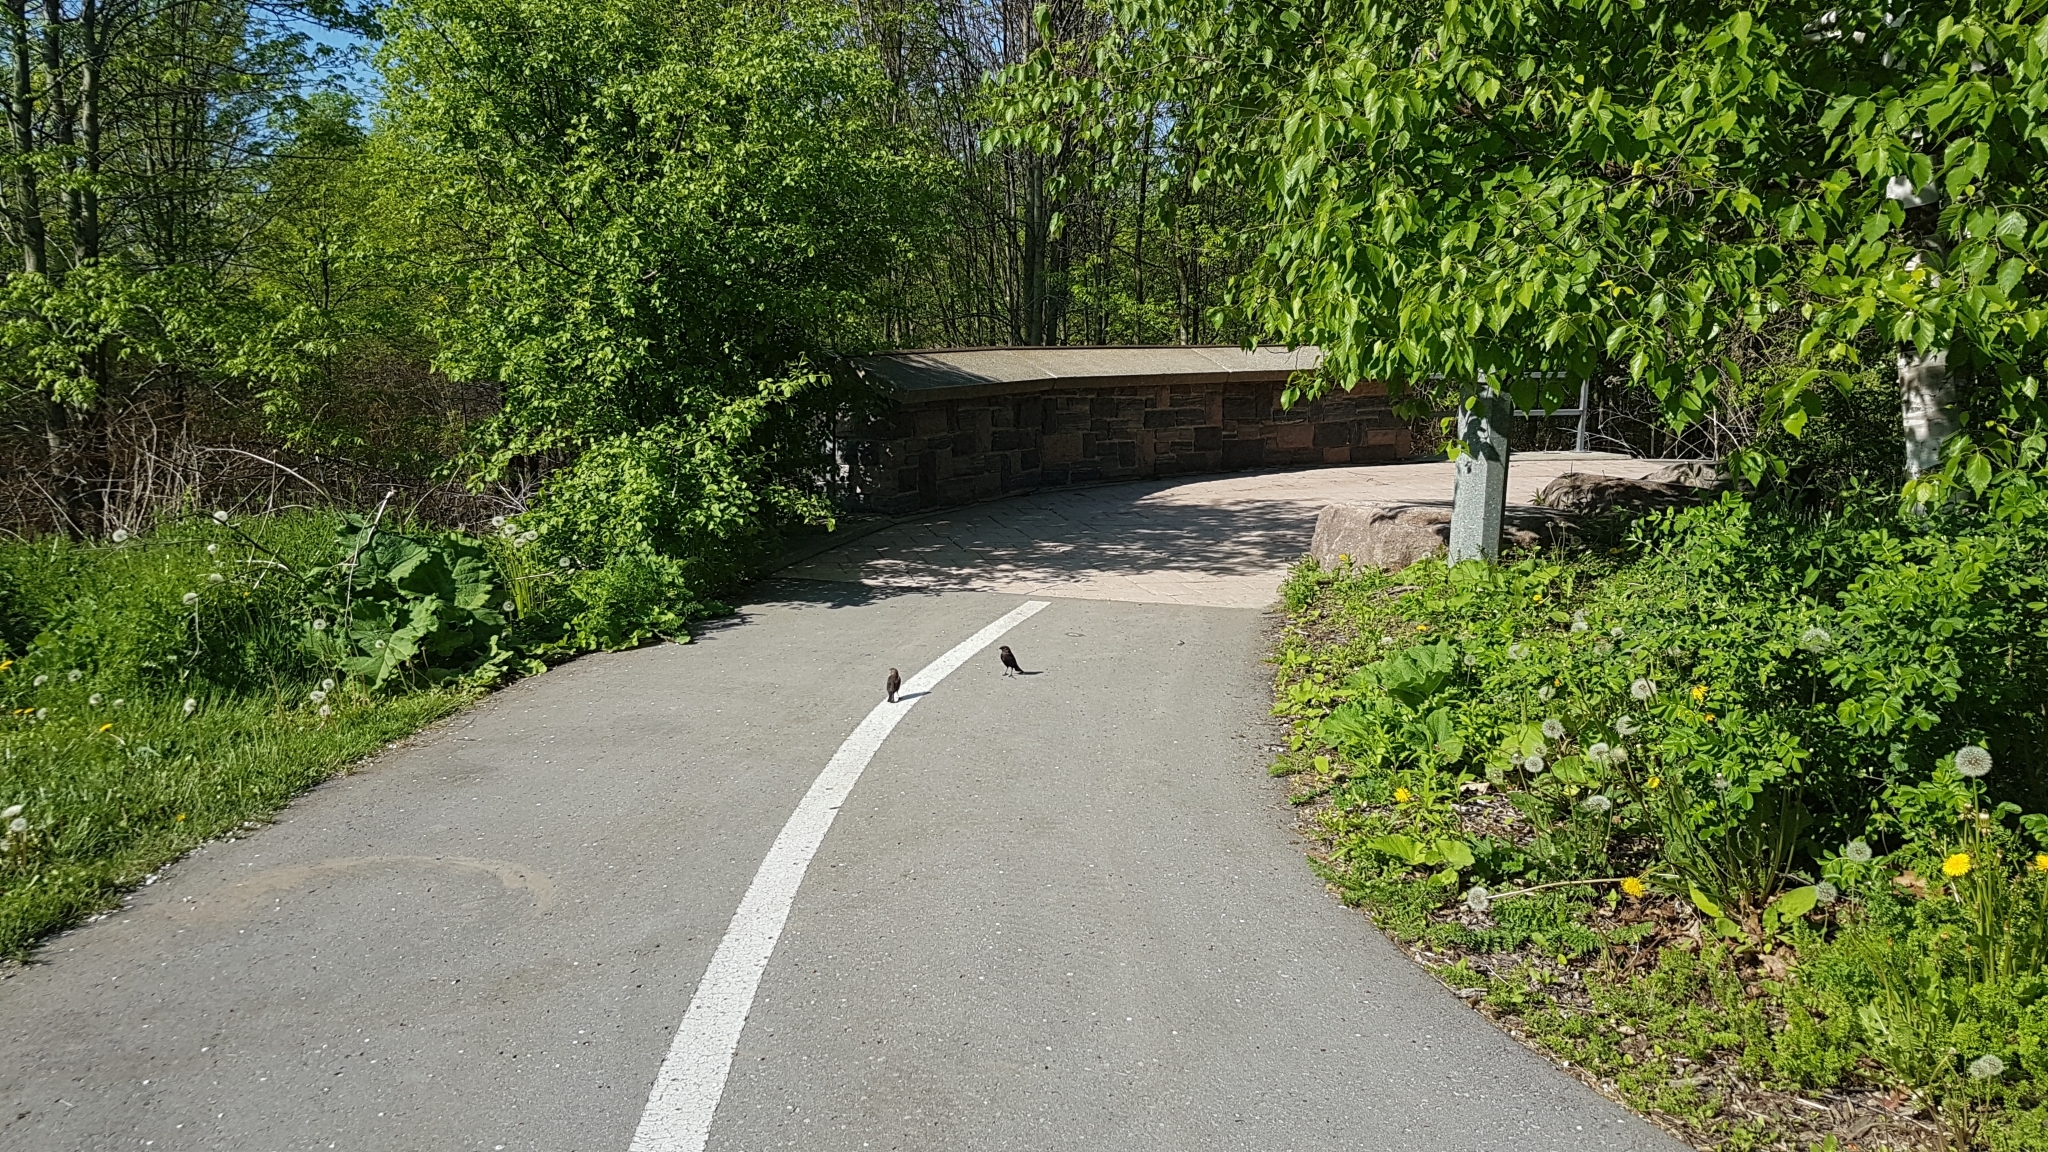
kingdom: Animalia
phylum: Chordata
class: Aves
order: Passeriformes
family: Icteridae
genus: Molothrus
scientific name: Molothrus ater
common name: Brown-headed cowbird
